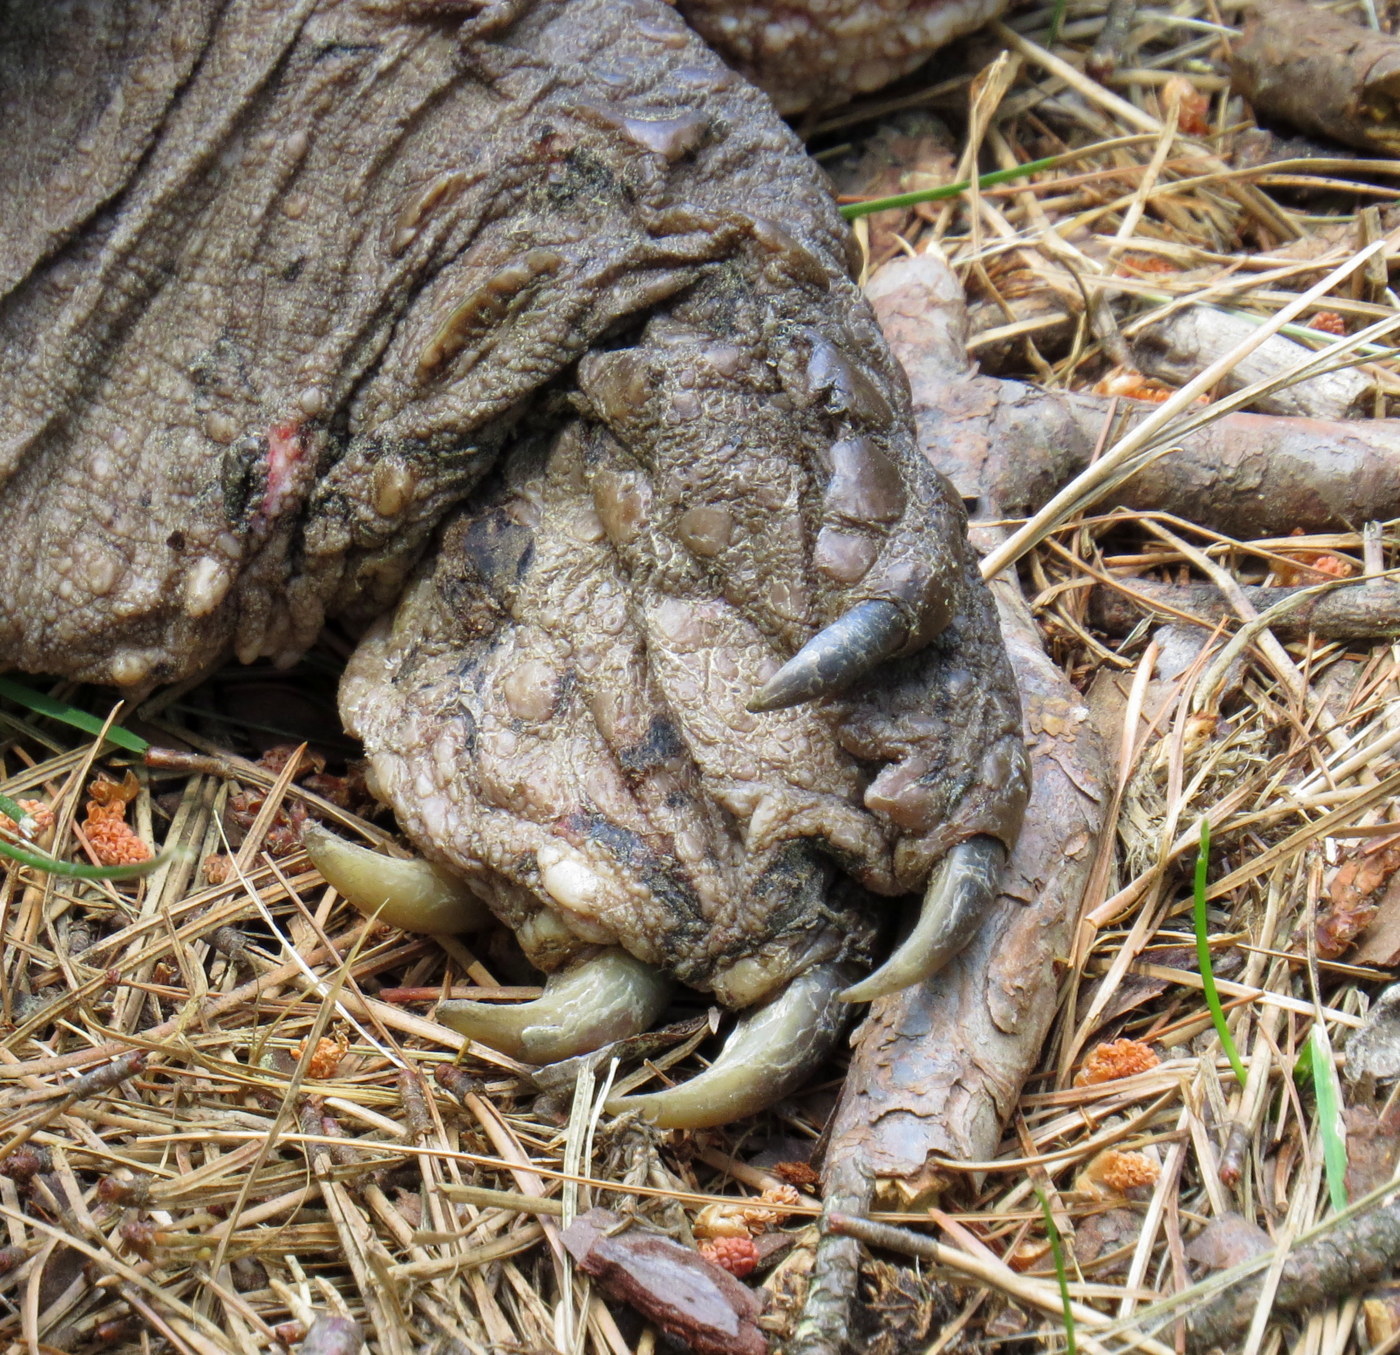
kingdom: Animalia
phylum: Chordata
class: Testudines
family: Chelydridae
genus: Chelydra
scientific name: Chelydra serpentina
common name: Common snapping turtle
